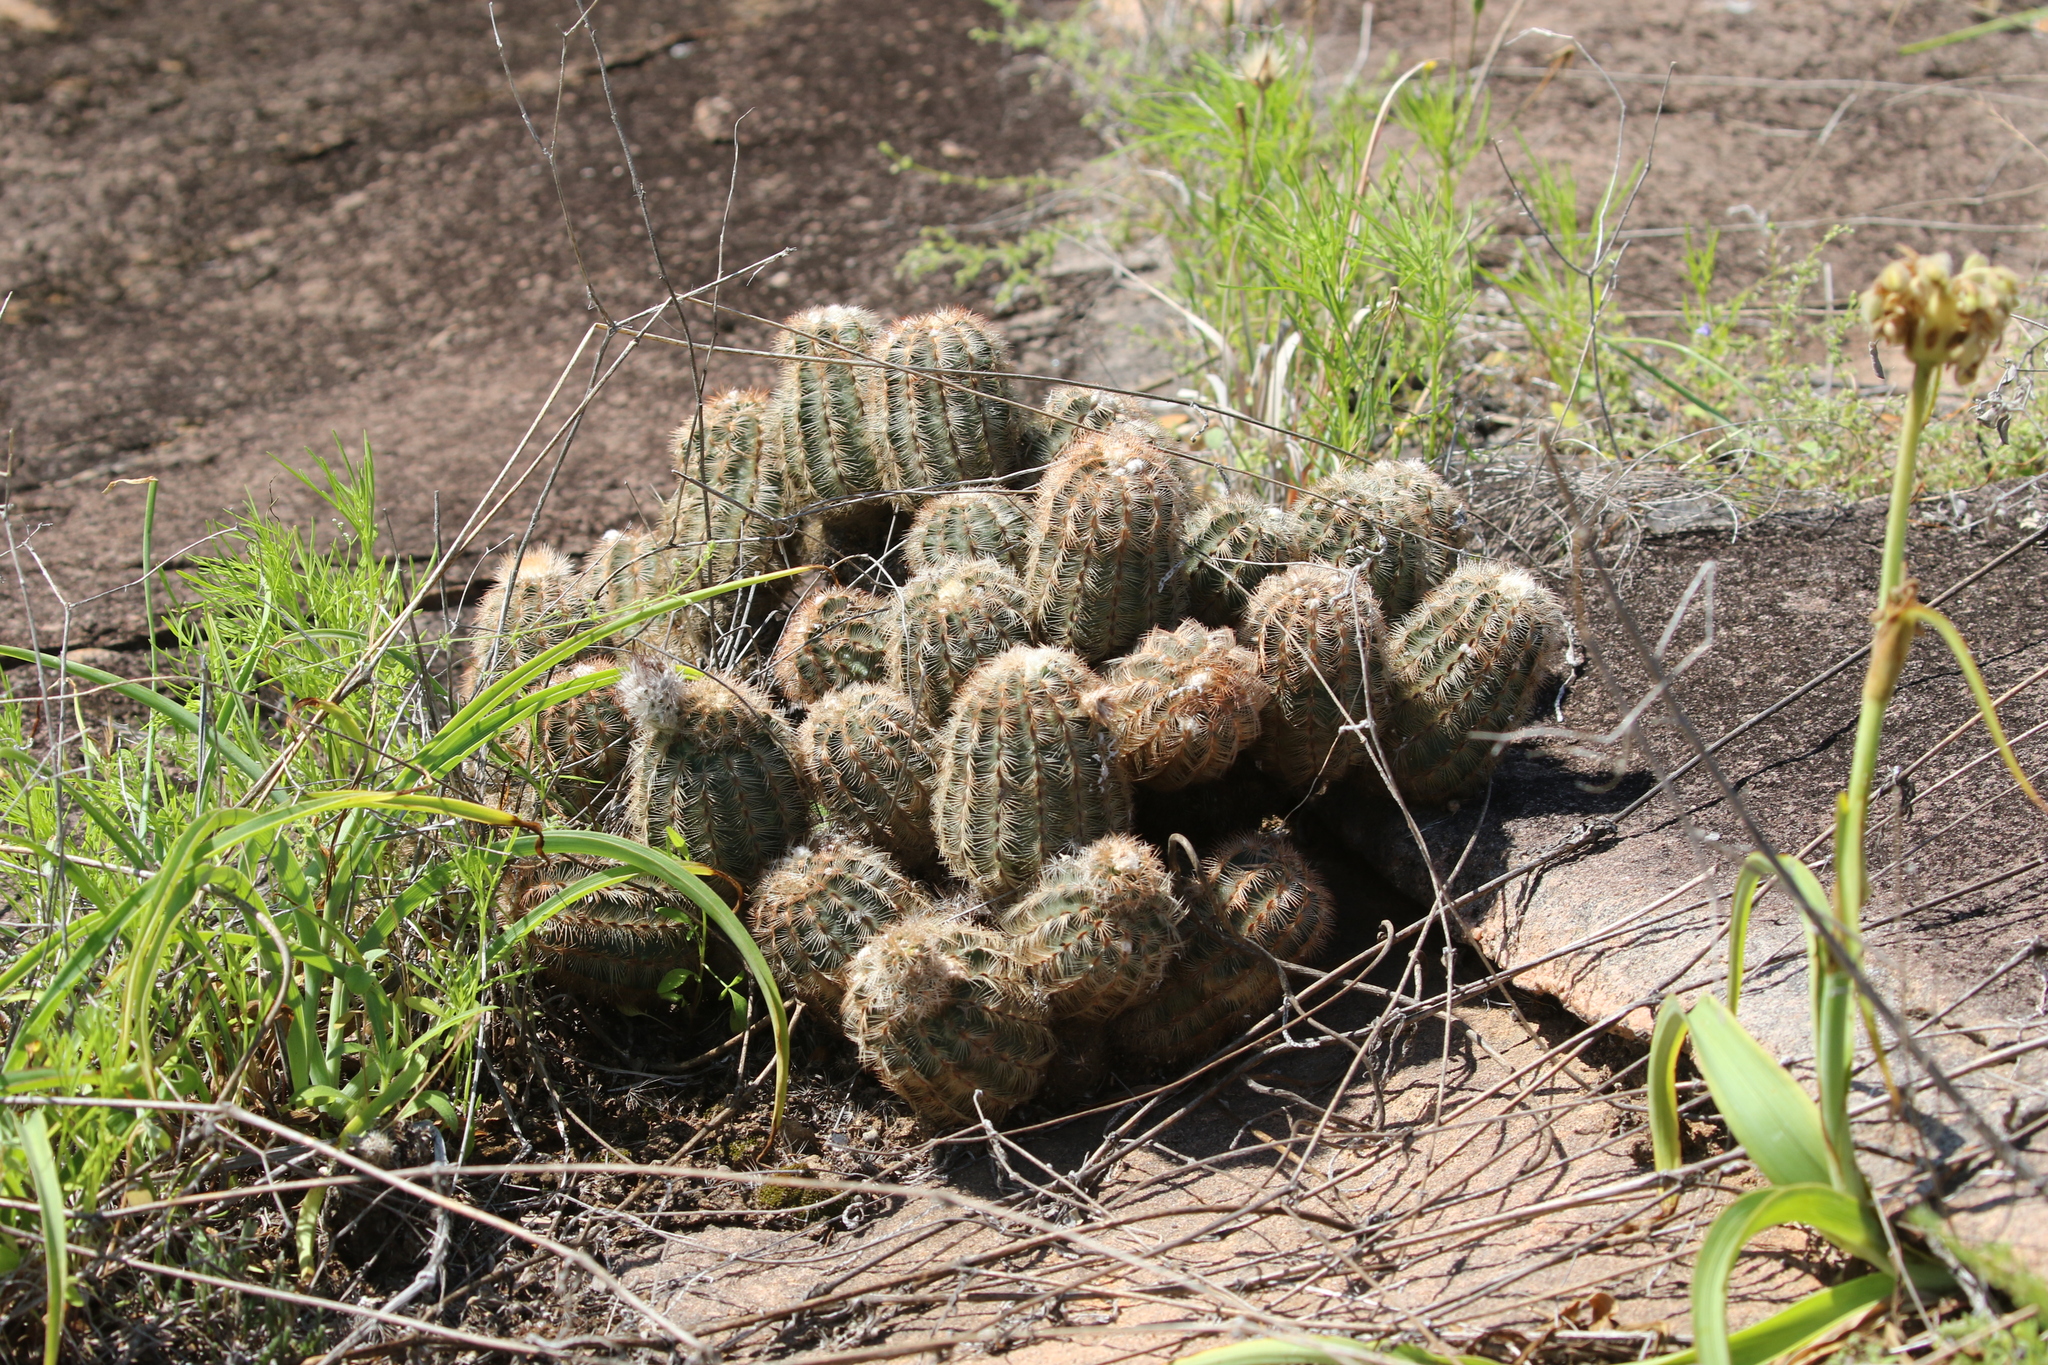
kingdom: Plantae
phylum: Tracheophyta
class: Magnoliopsida
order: Caryophyllales
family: Cactaceae
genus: Echinocereus
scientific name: Echinocereus reichenbachii
